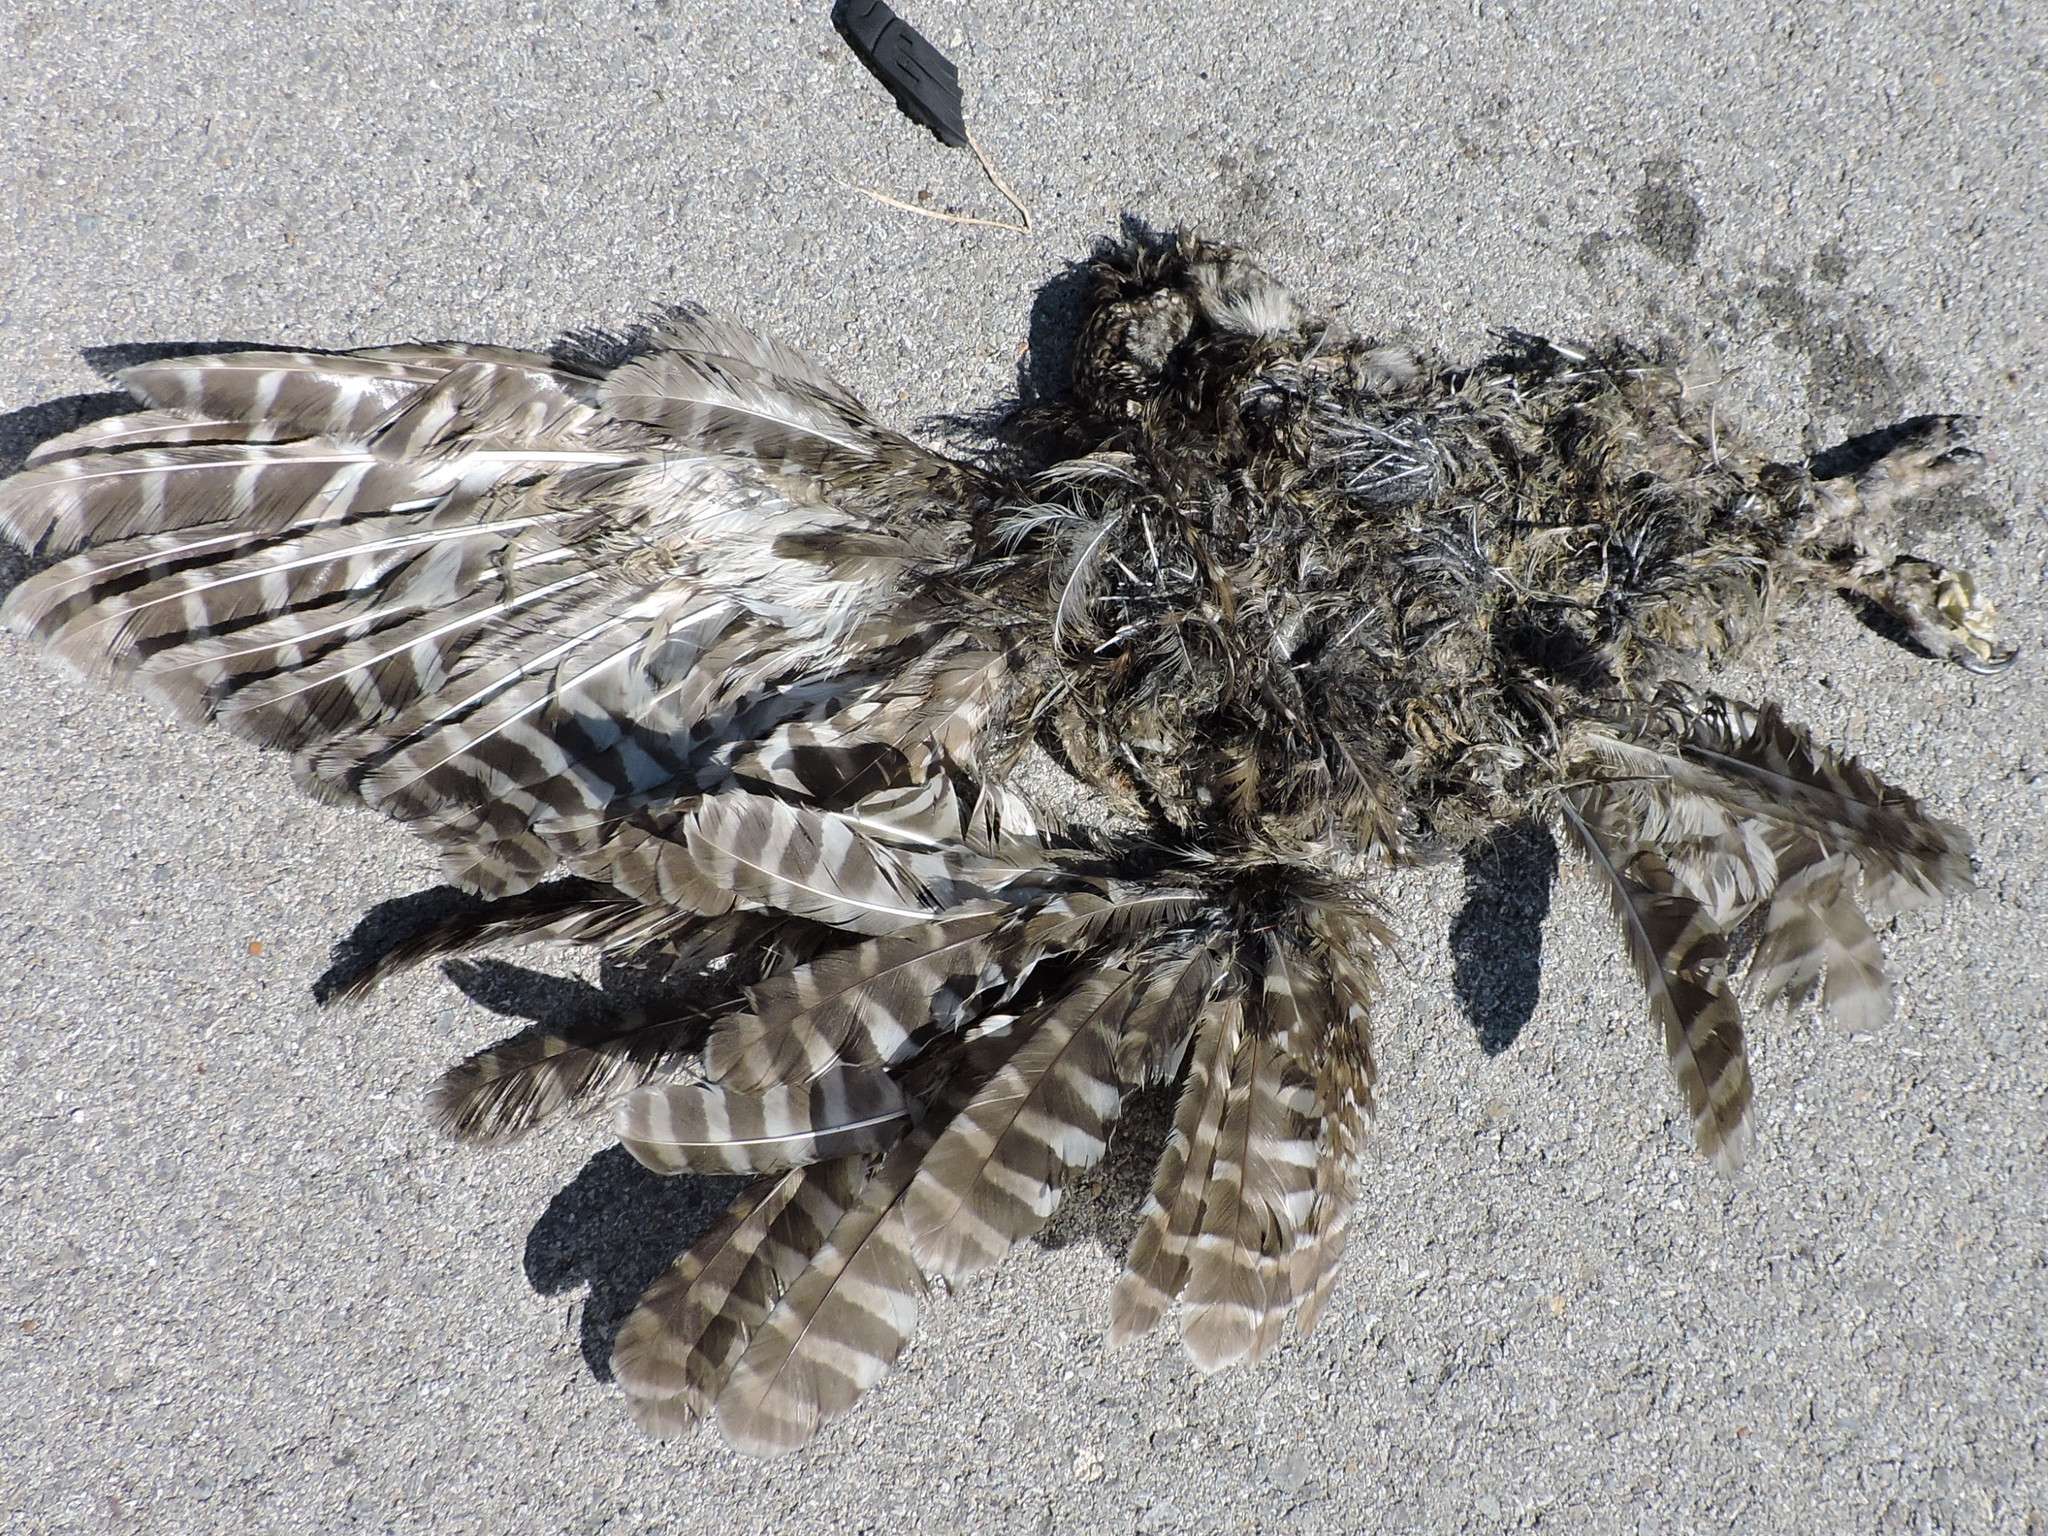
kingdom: Animalia
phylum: Chordata
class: Aves
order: Strigiformes
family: Strigidae
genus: Strix
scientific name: Strix varia
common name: Barred owl
